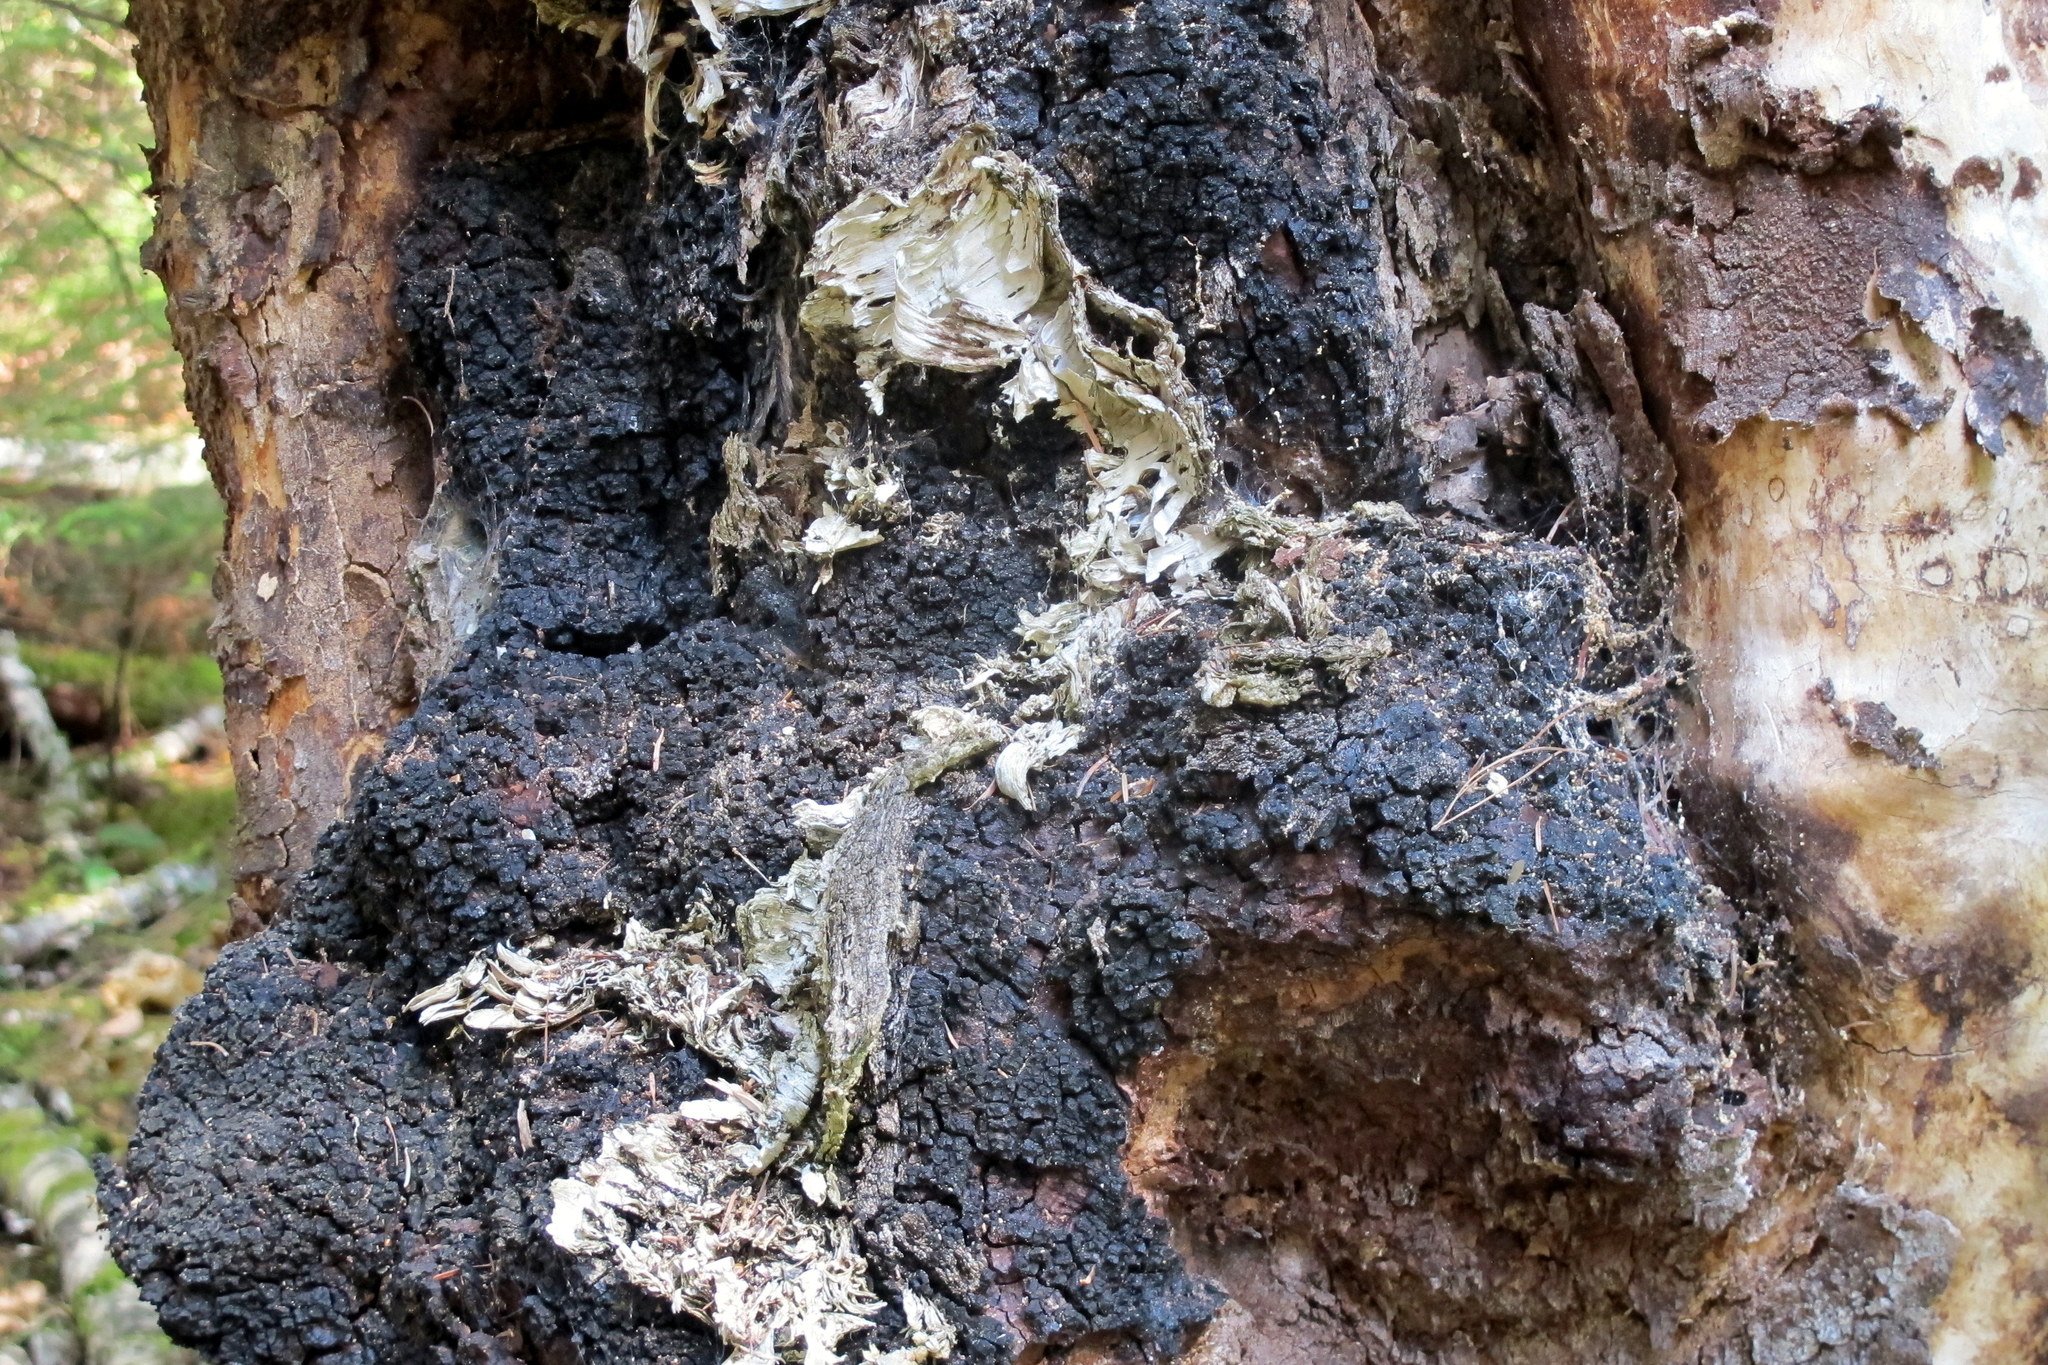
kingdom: Fungi
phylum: Basidiomycota
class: Agaricomycetes
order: Hymenochaetales
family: Hymenochaetaceae
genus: Inonotus
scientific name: Inonotus obliquus
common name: Chaga
